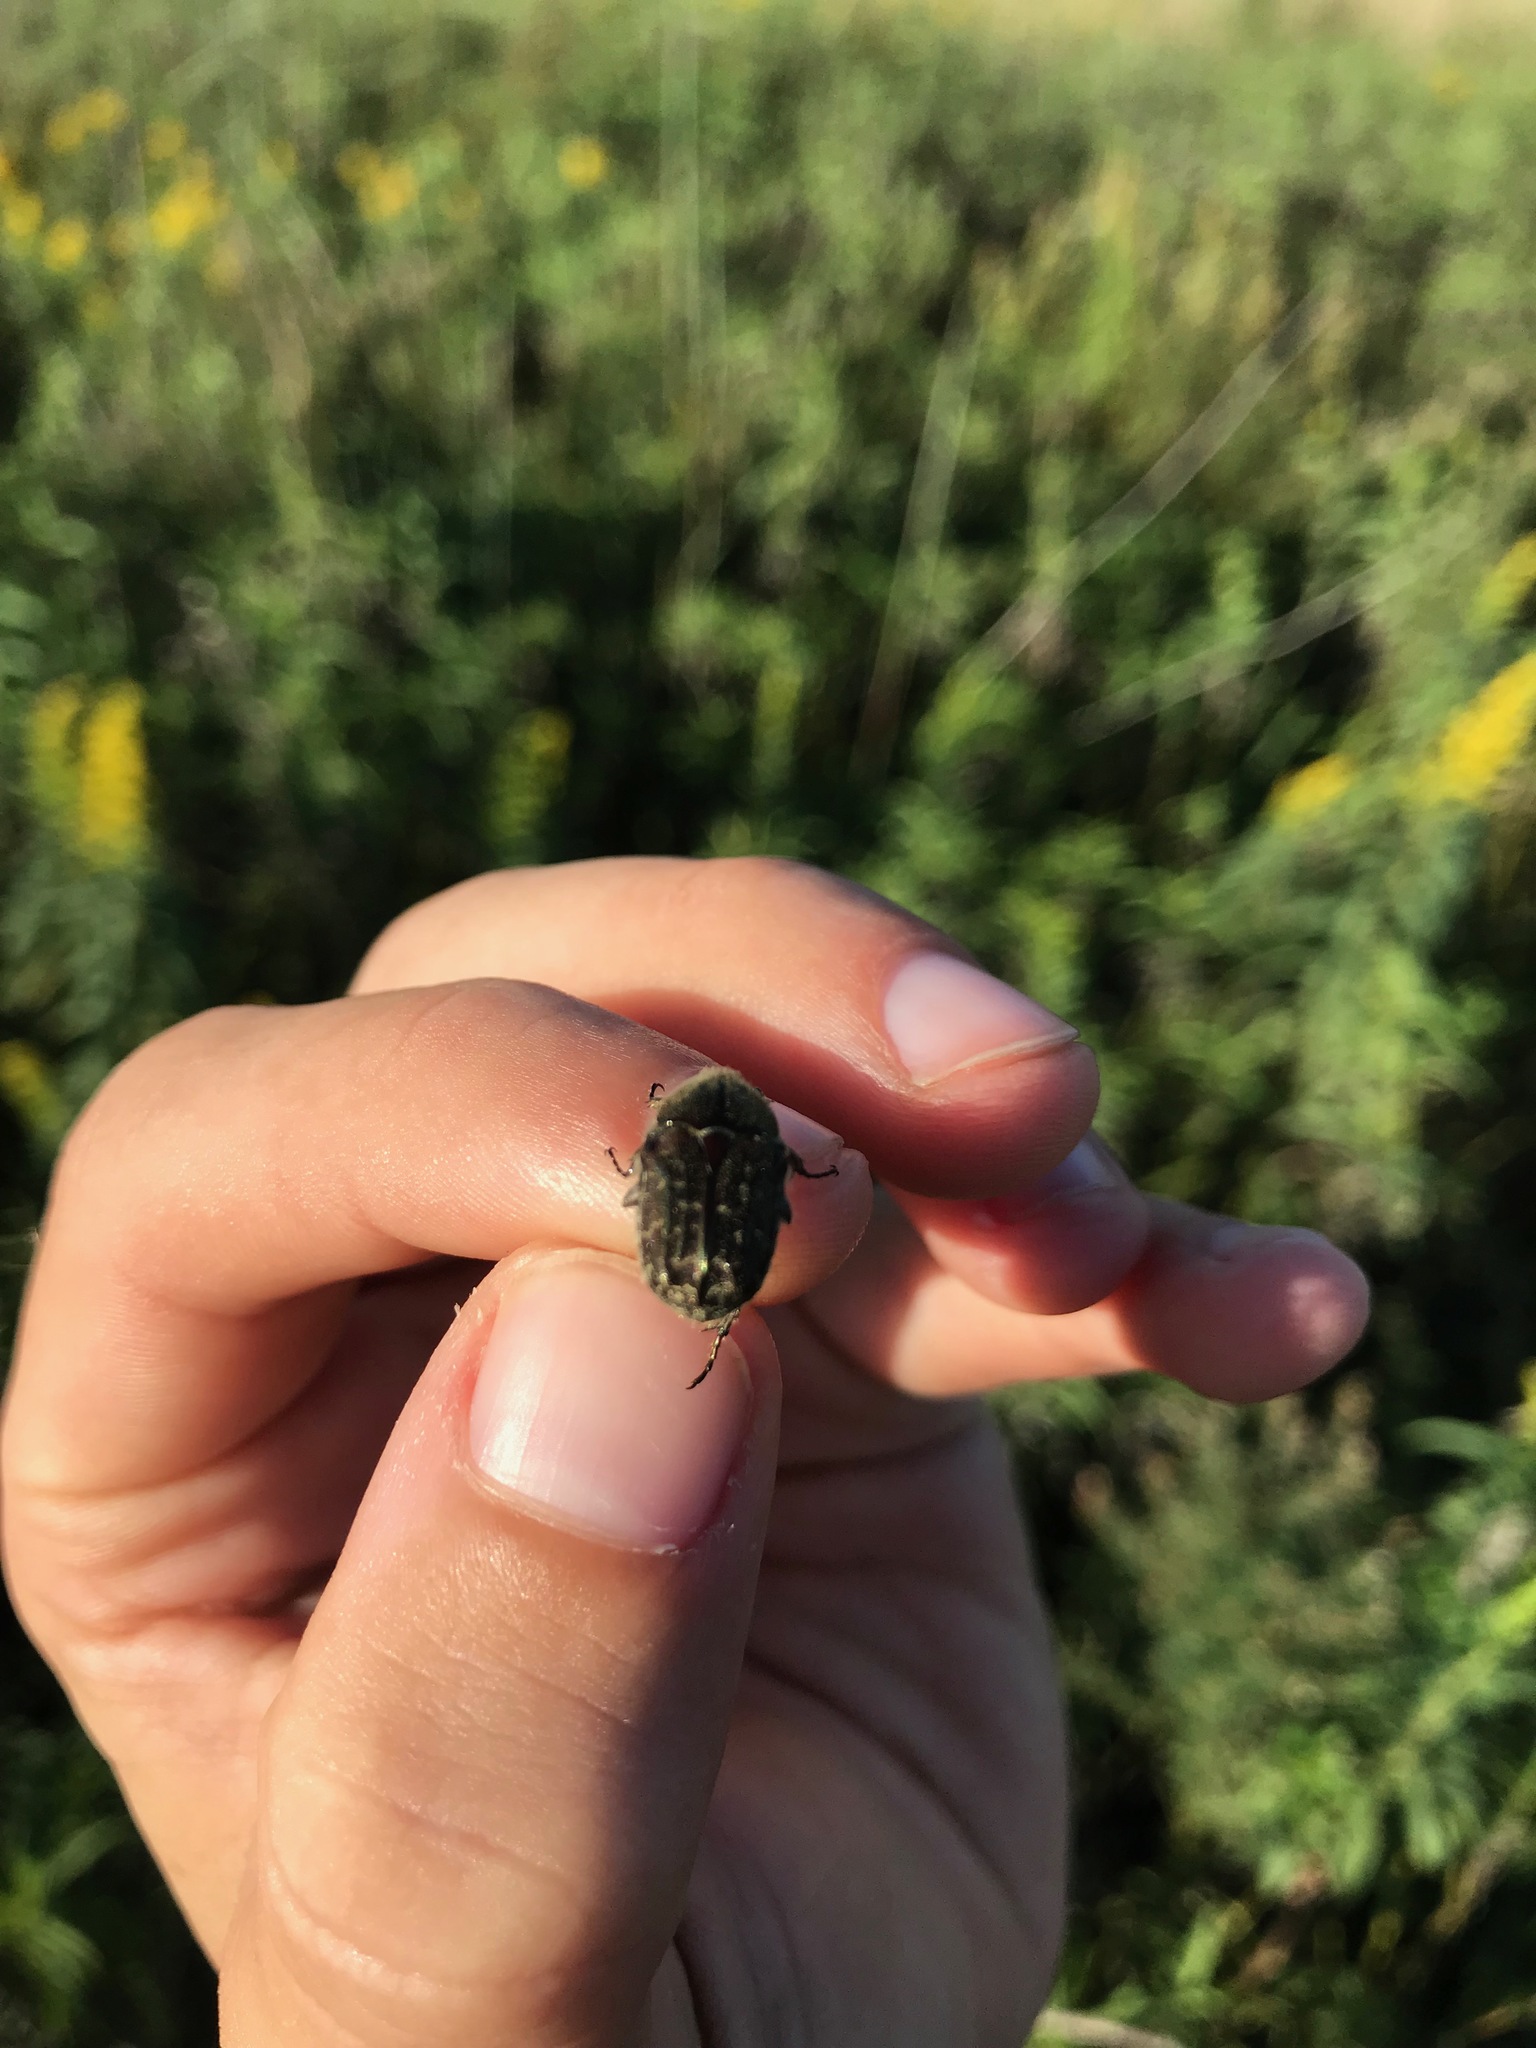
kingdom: Animalia
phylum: Arthropoda
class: Insecta
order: Coleoptera
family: Scarabaeidae
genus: Euphoria
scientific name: Euphoria sepulcralis
